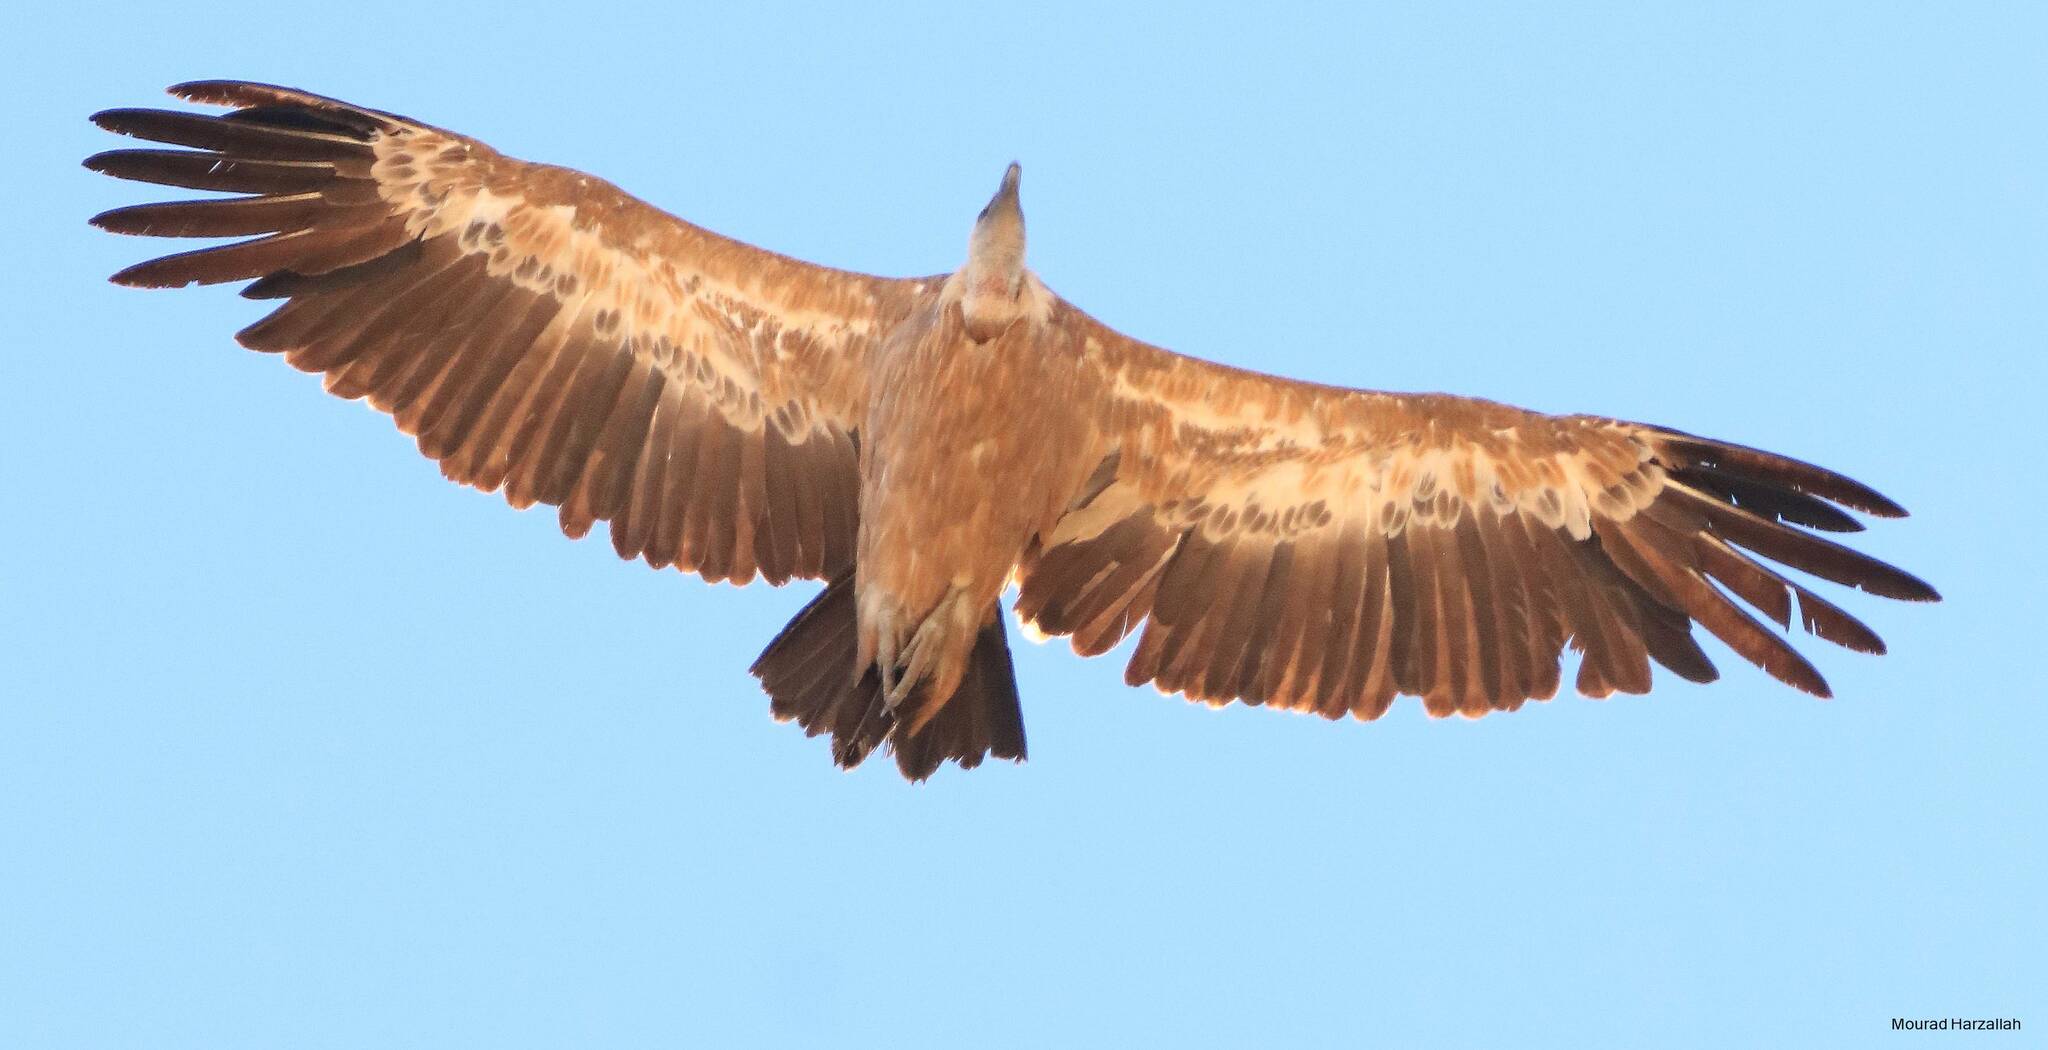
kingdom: Animalia
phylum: Chordata
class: Aves
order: Accipitriformes
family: Accipitridae
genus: Gyps
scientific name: Gyps fulvus
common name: Griffon vulture
